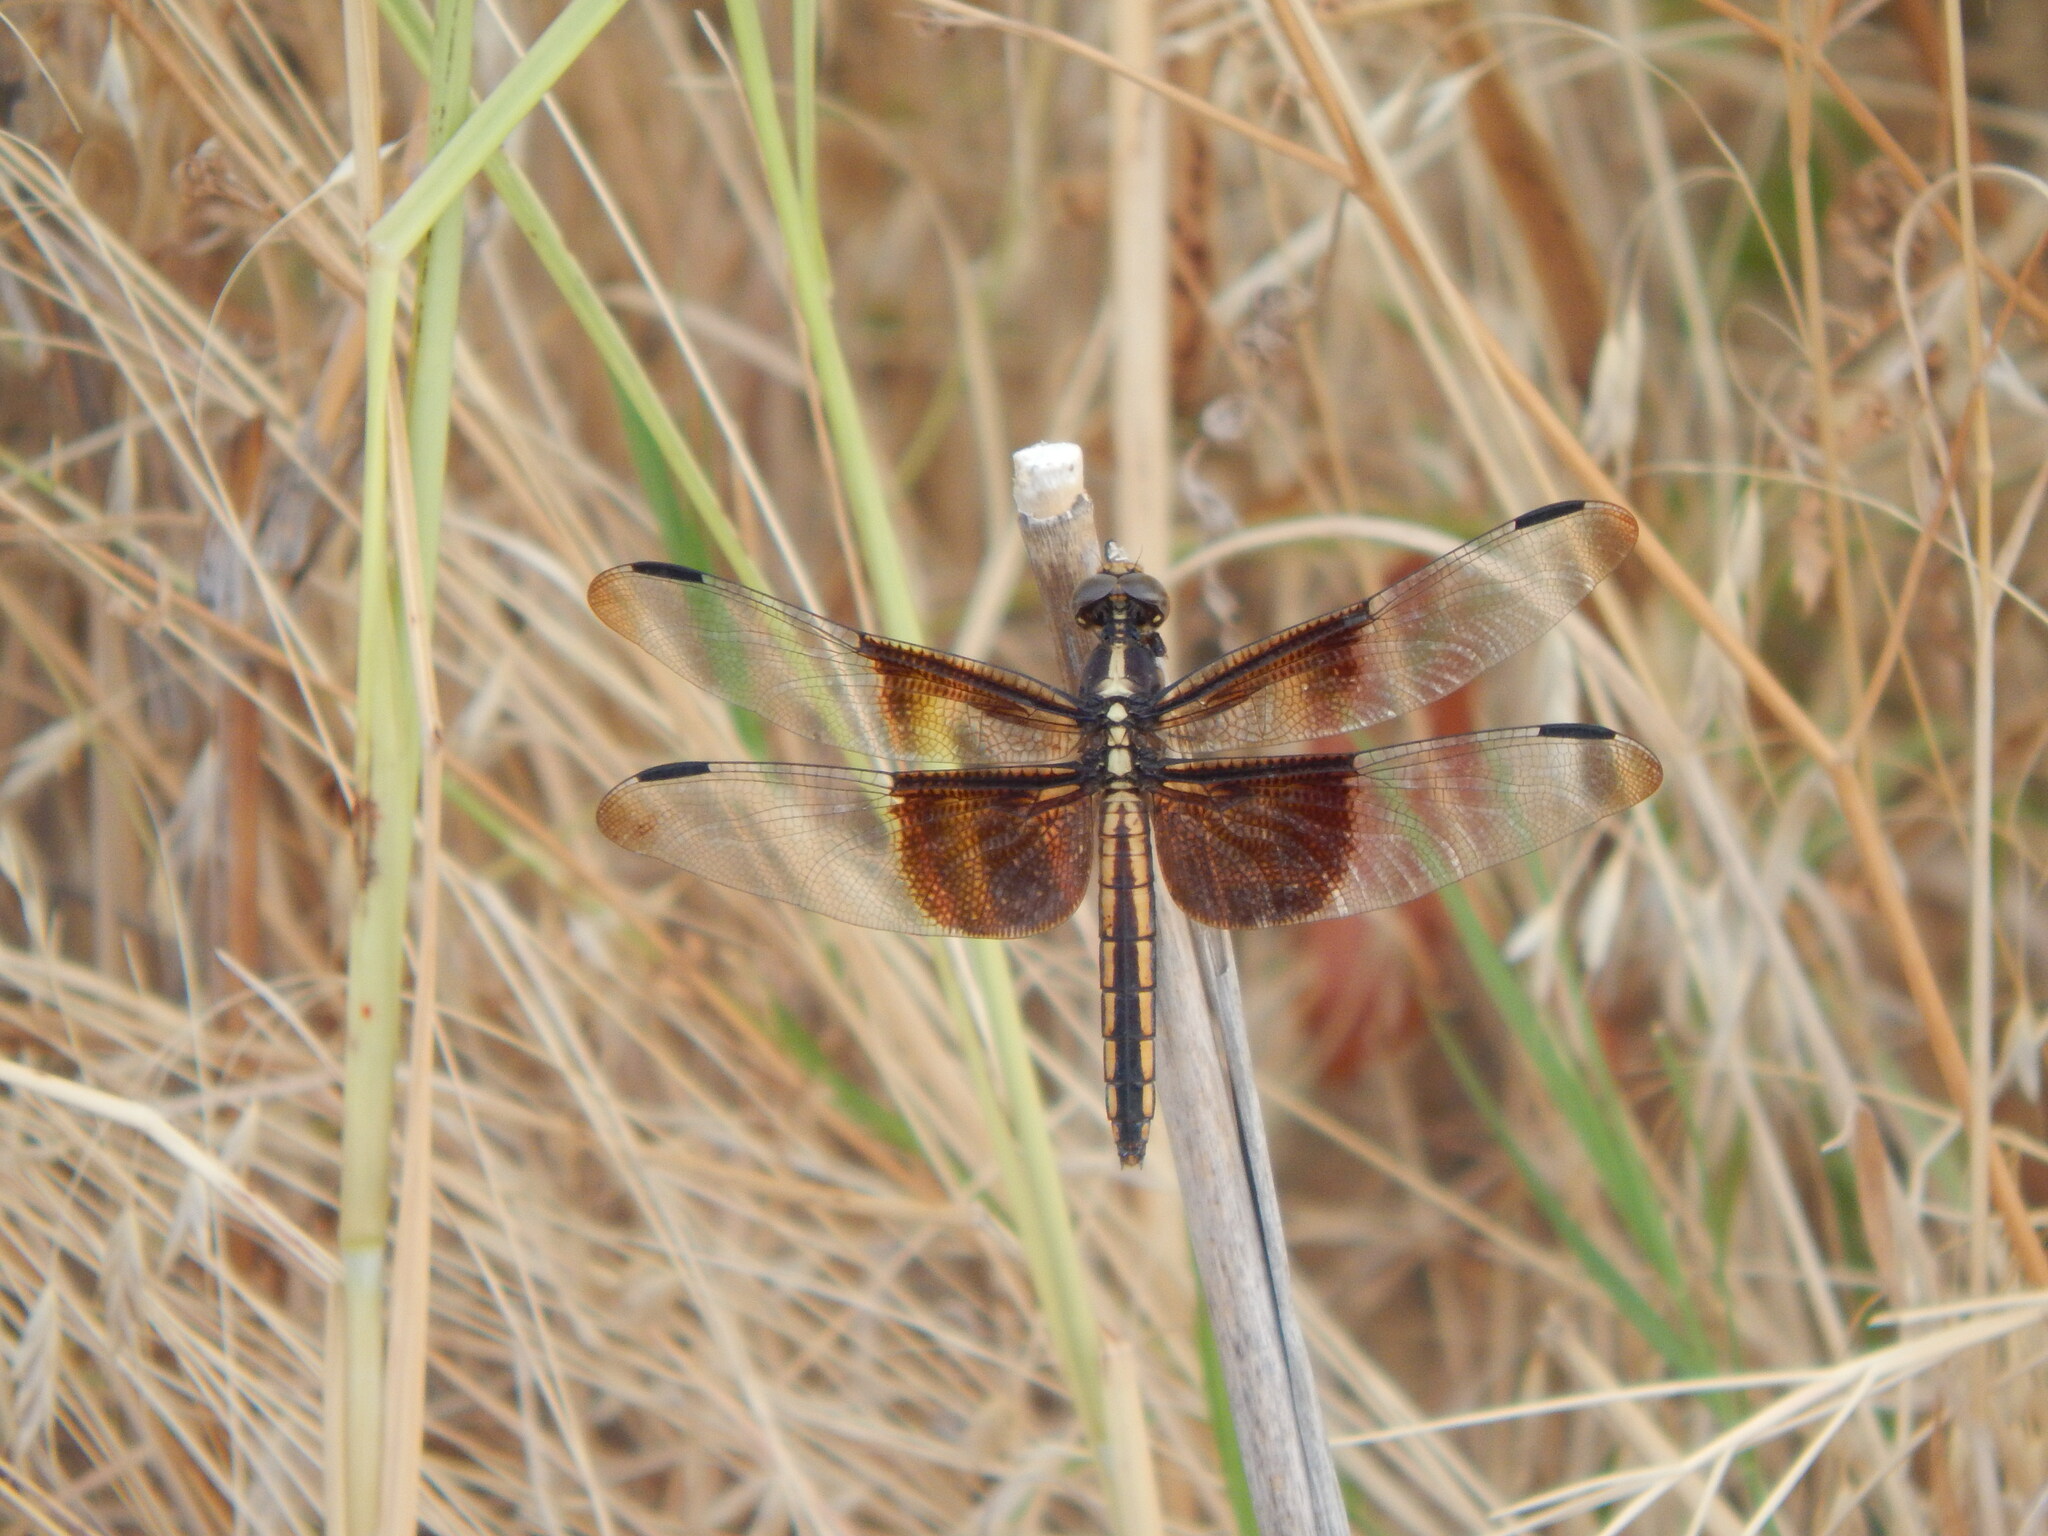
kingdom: Animalia
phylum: Arthropoda
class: Insecta
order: Odonata
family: Libellulidae
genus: Libellula
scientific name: Libellula luctuosa
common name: Widow skimmer
